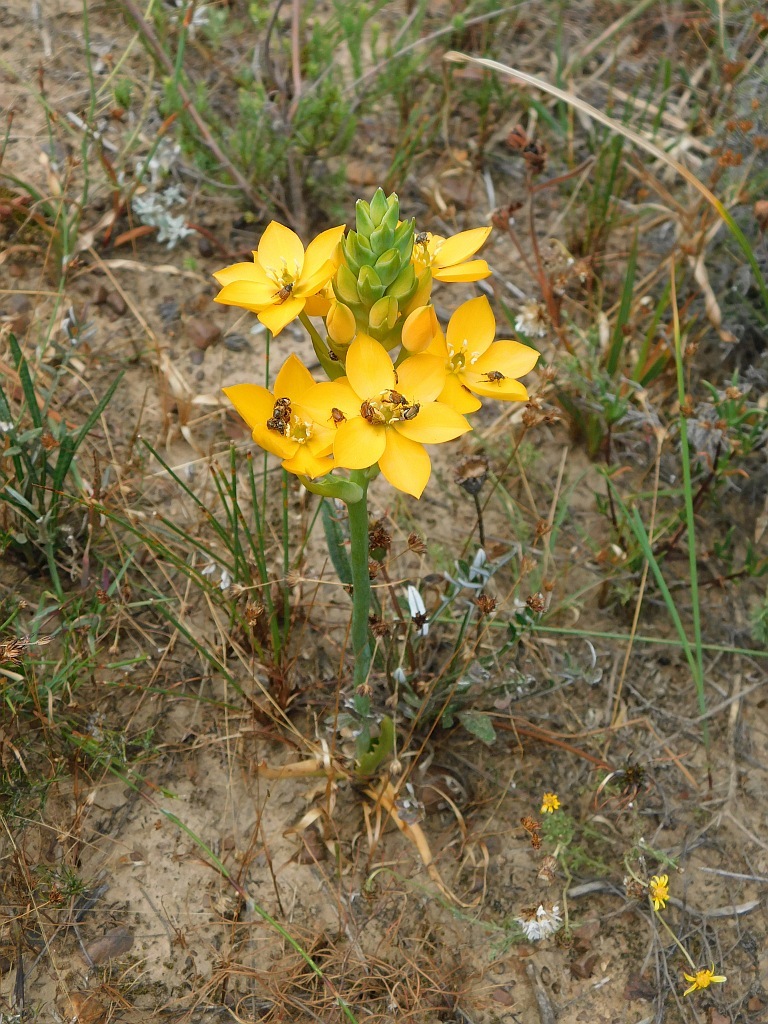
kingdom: Plantae
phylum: Tracheophyta
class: Liliopsida
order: Asparagales
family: Asparagaceae
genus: Ornithogalum
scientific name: Ornithogalum dubium
